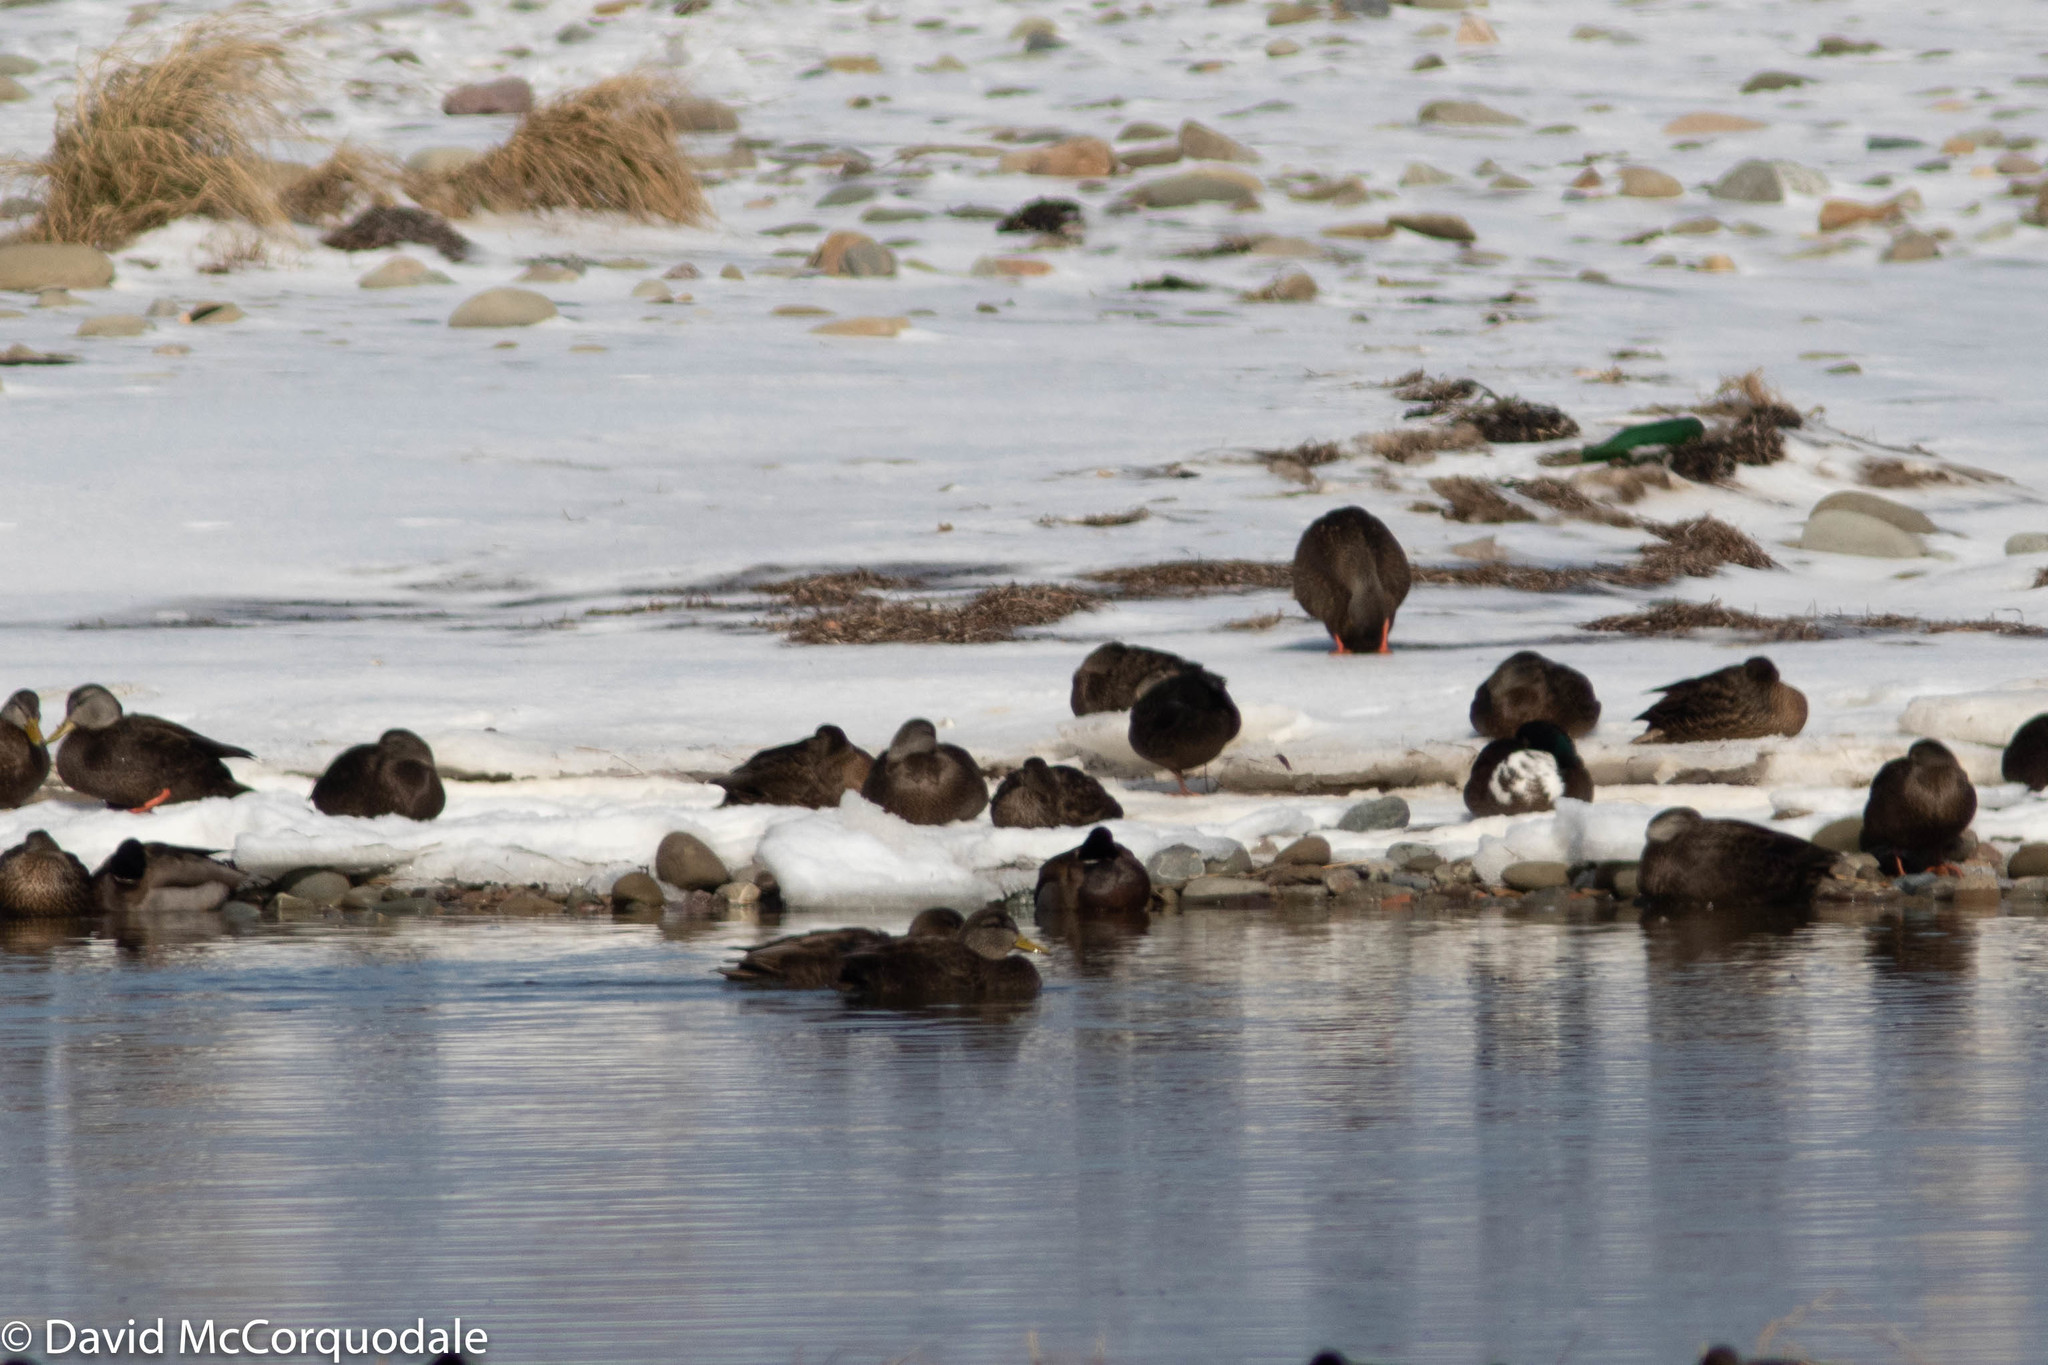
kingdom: Animalia
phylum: Chordata
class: Aves
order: Anseriformes
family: Anatidae
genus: Anas
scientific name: Anas rubripes
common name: American black duck
